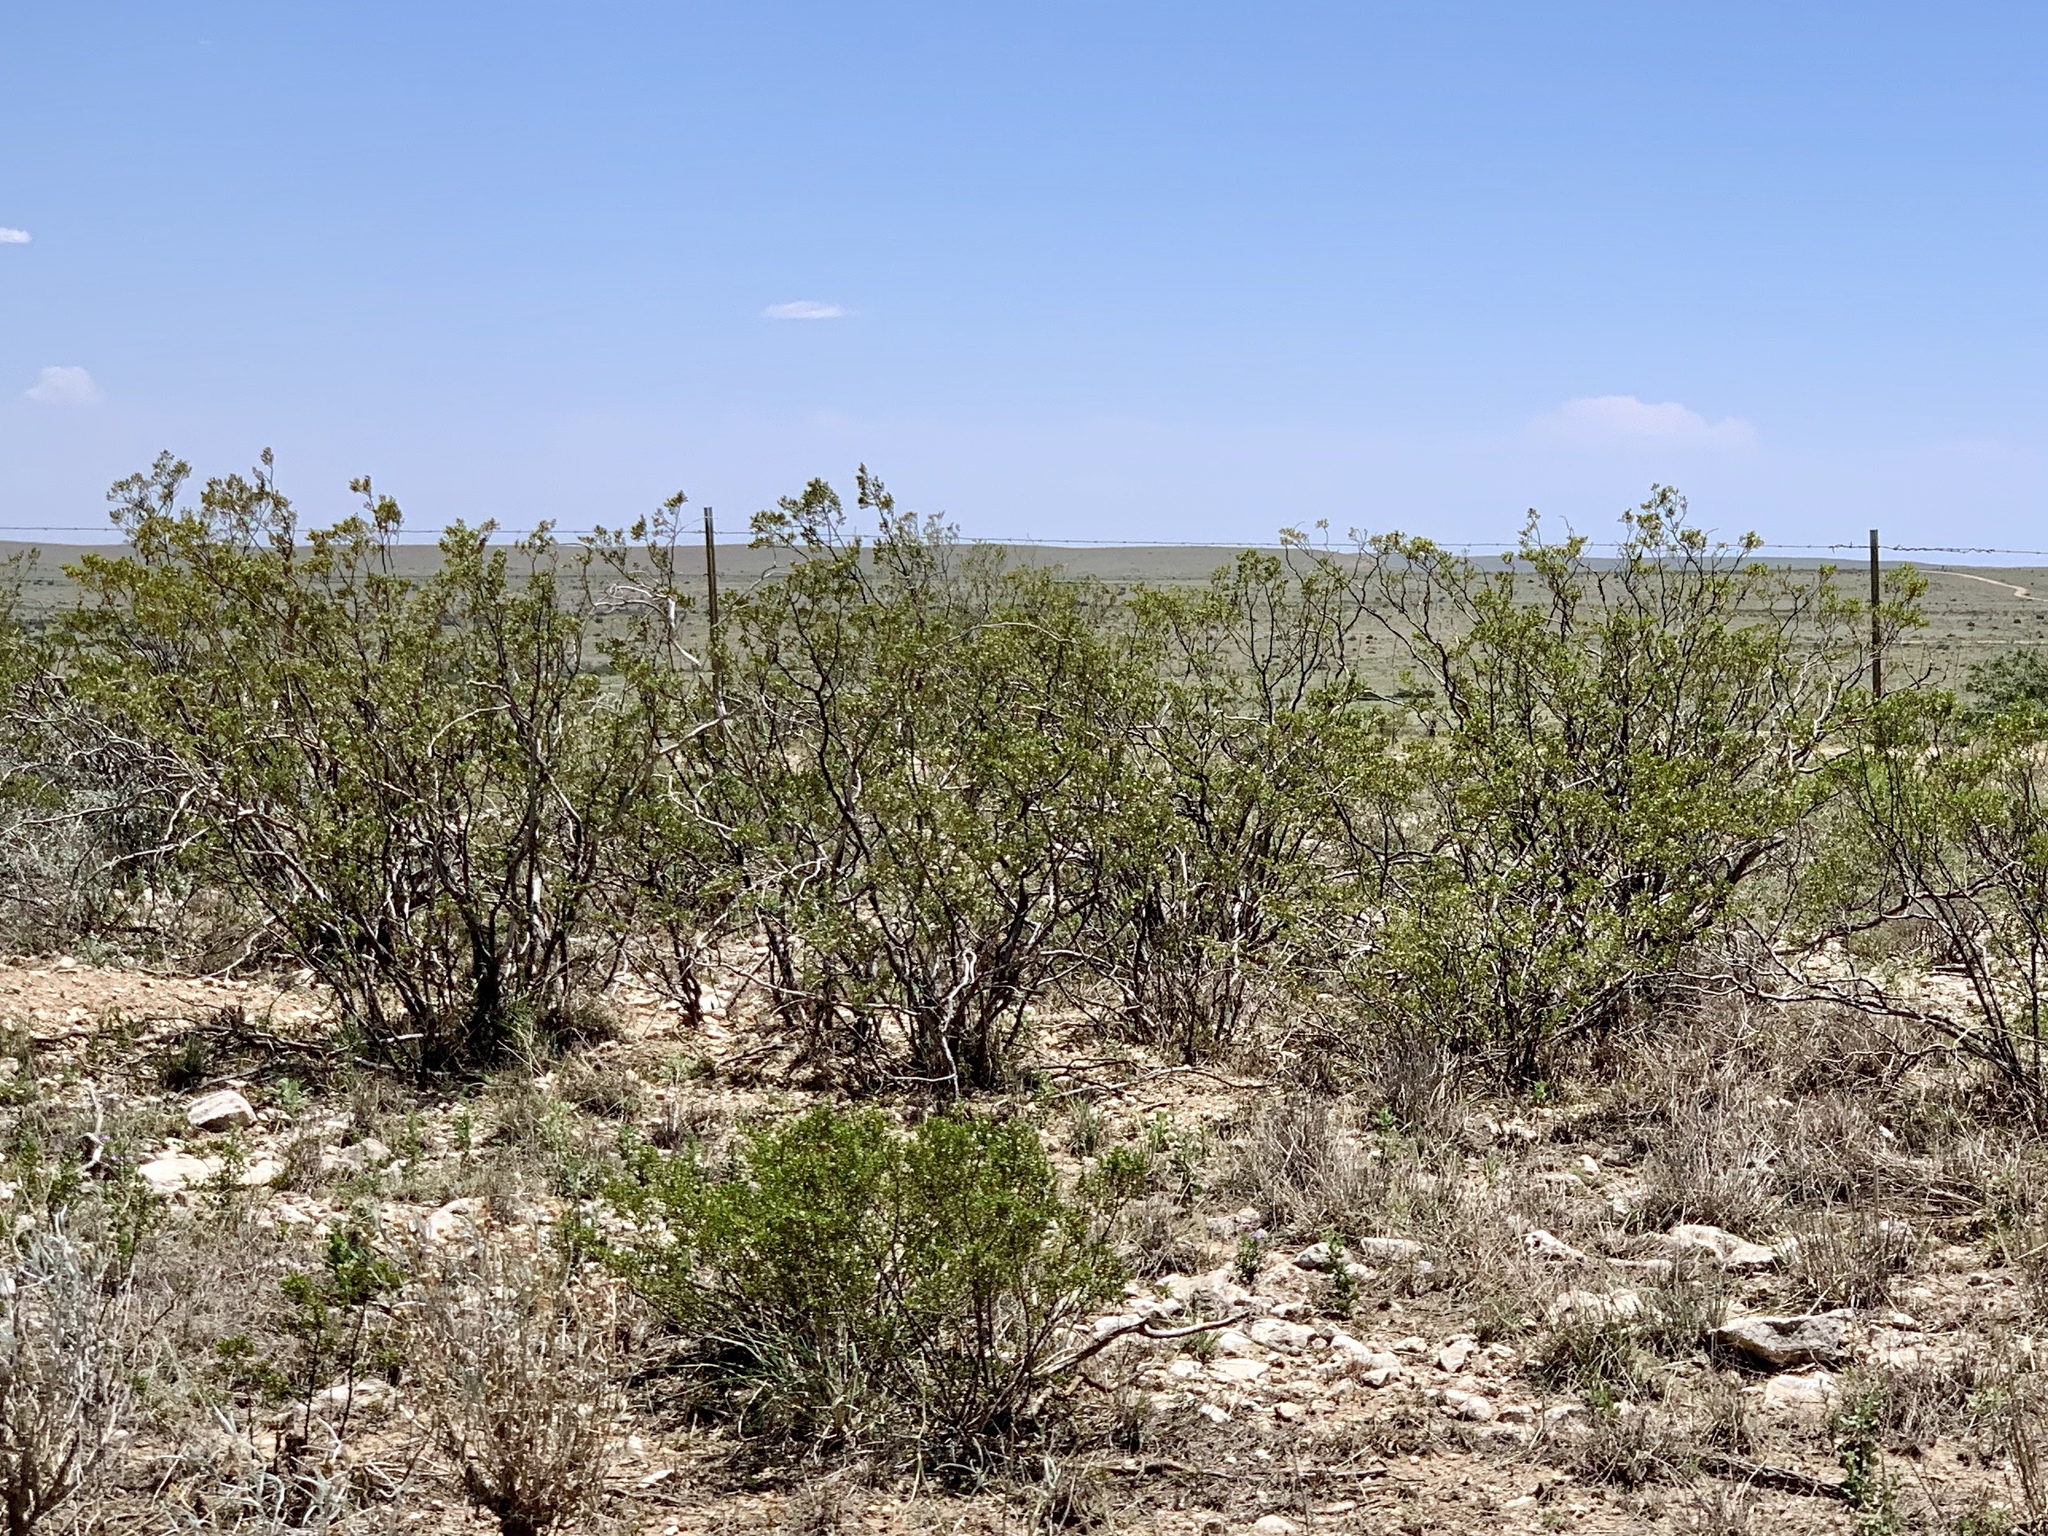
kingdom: Plantae
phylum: Tracheophyta
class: Magnoliopsida
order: Zygophyllales
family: Zygophyllaceae
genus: Larrea
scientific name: Larrea tridentata
